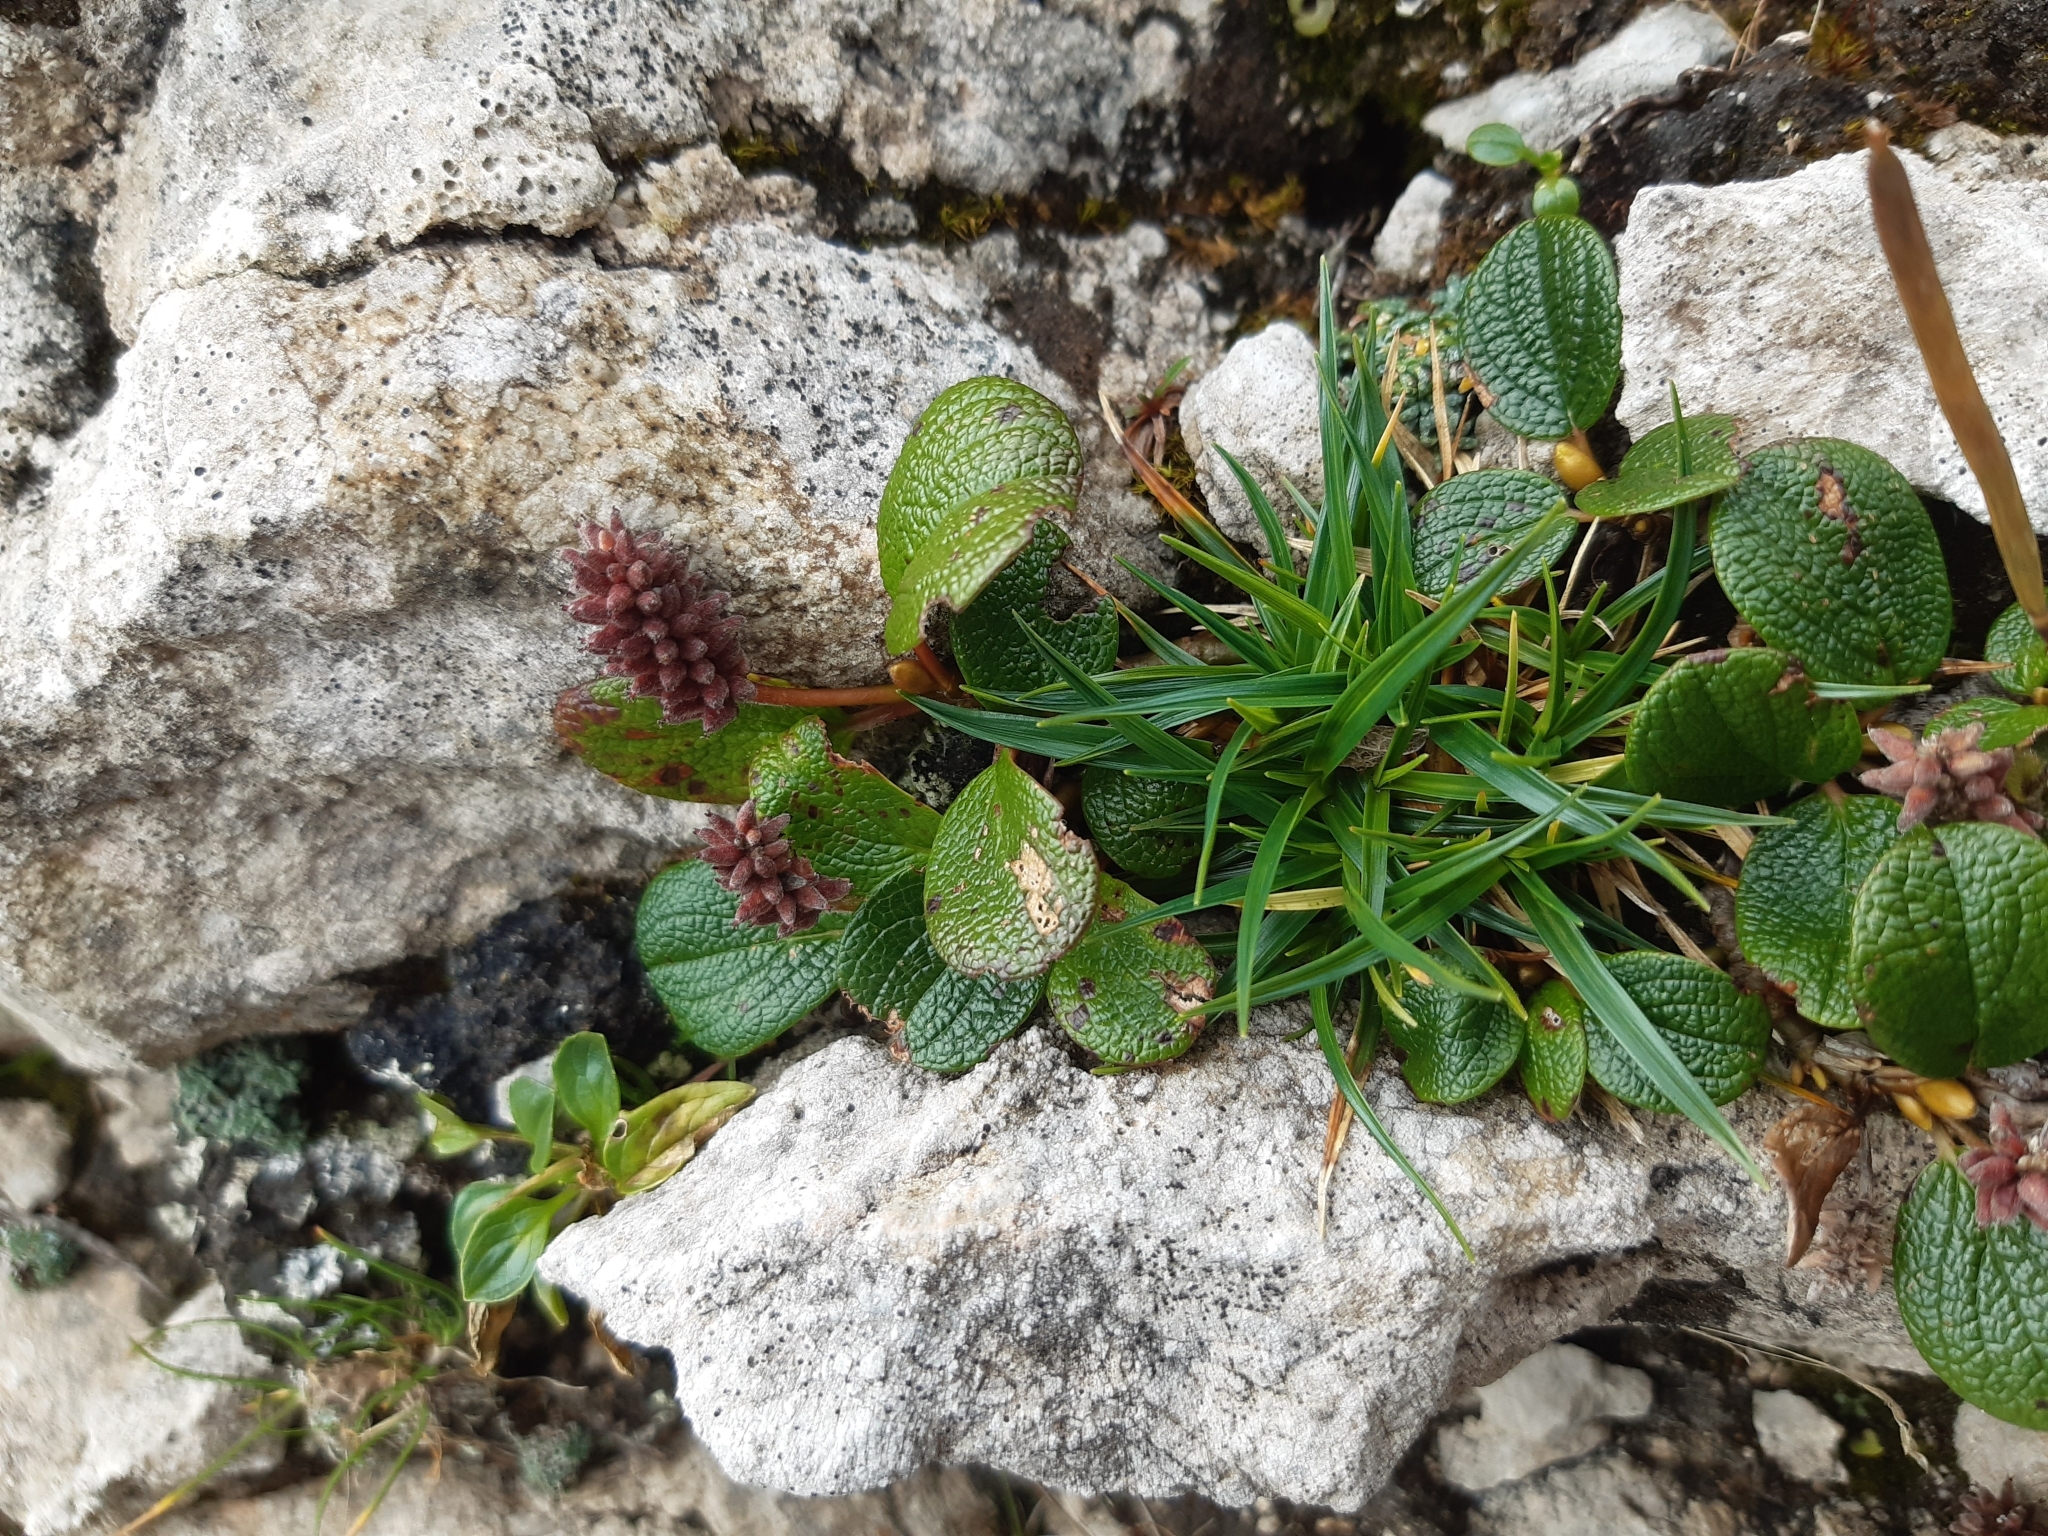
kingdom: Plantae
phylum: Tracheophyta
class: Magnoliopsida
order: Malpighiales
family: Salicaceae
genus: Salix
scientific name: Salix reticulata
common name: Net-leaved willow
